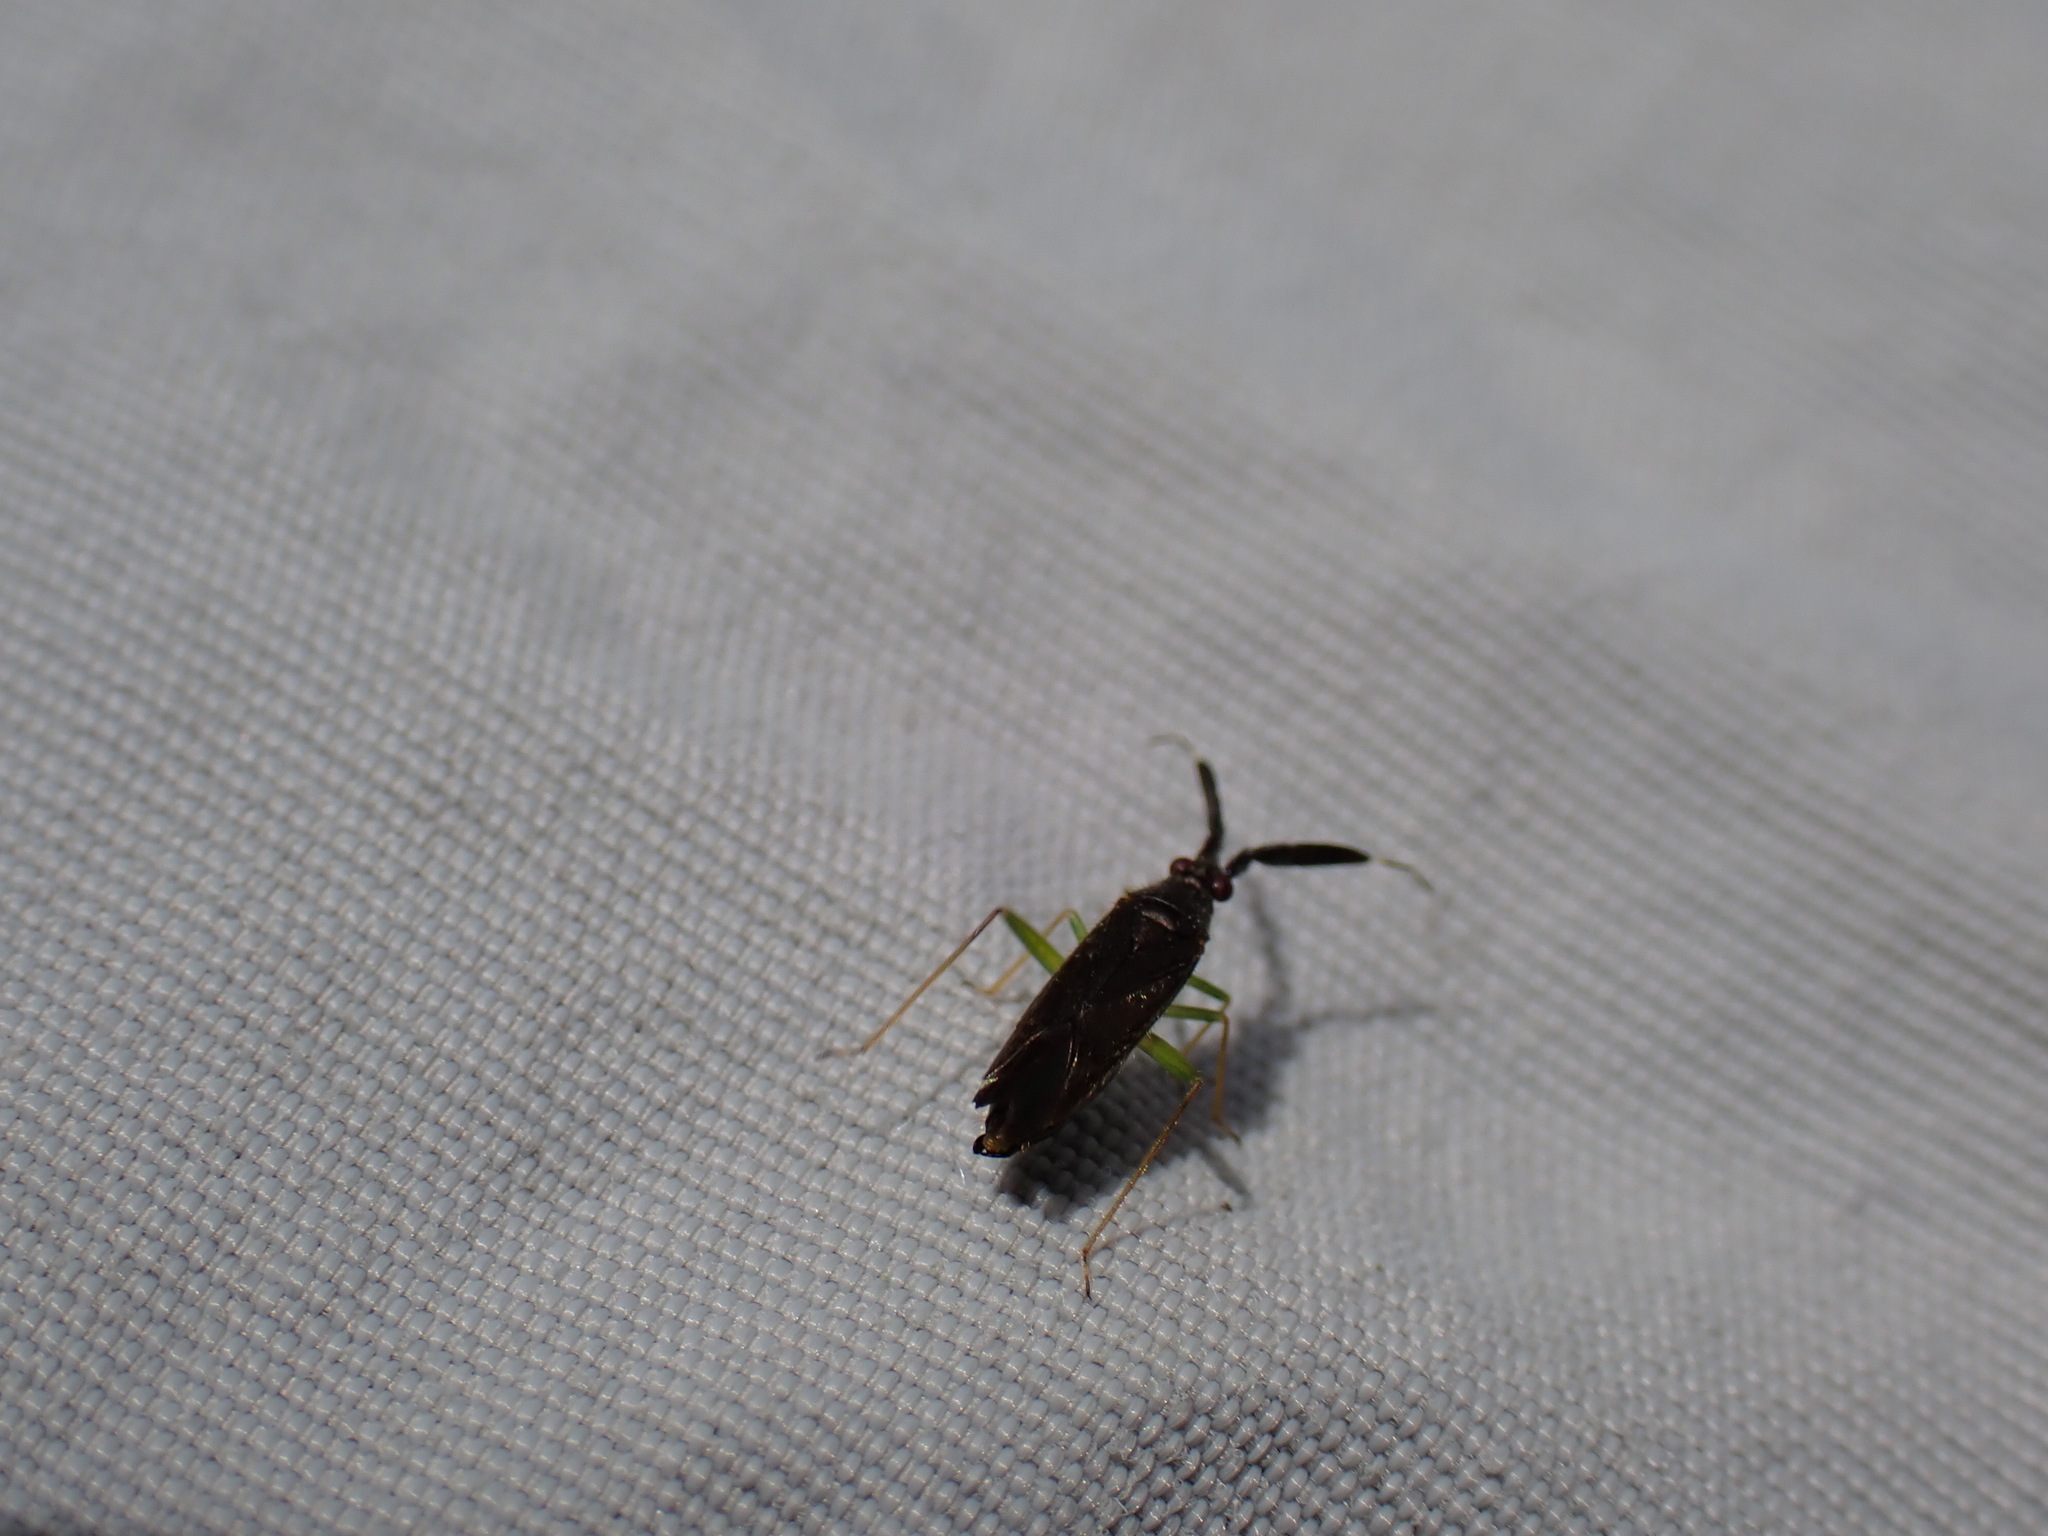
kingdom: Animalia
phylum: Arthropoda
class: Insecta
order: Hemiptera
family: Miridae
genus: Heterotoma
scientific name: Heterotoma planicornis
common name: Plant bug
